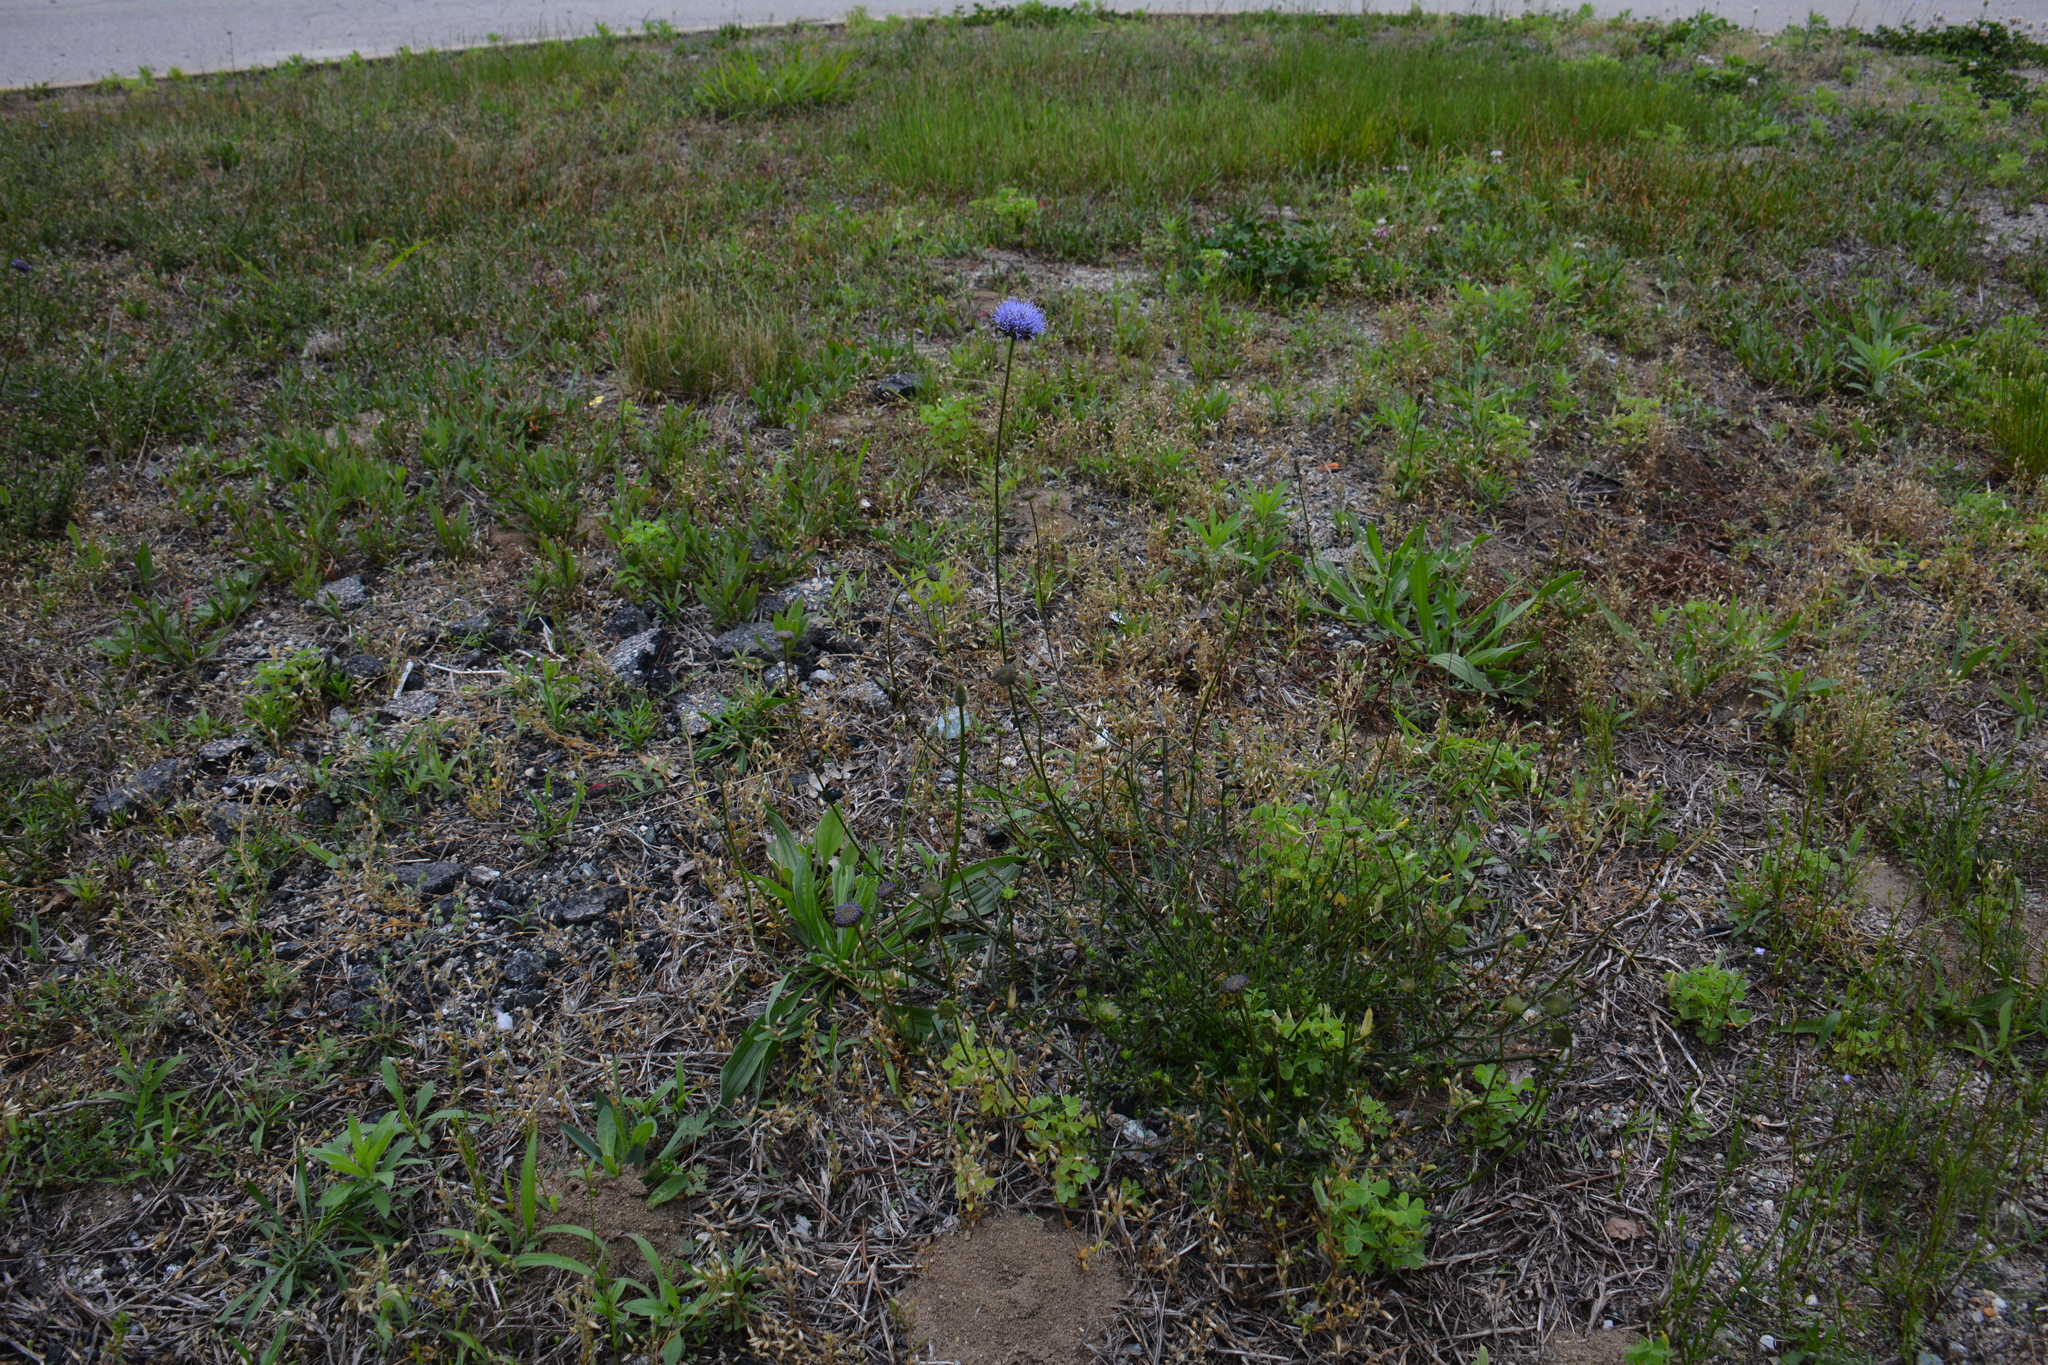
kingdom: Plantae
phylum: Tracheophyta
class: Magnoliopsida
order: Asterales
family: Campanulaceae
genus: Jasione
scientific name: Jasione montana
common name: Sheep's-bit
